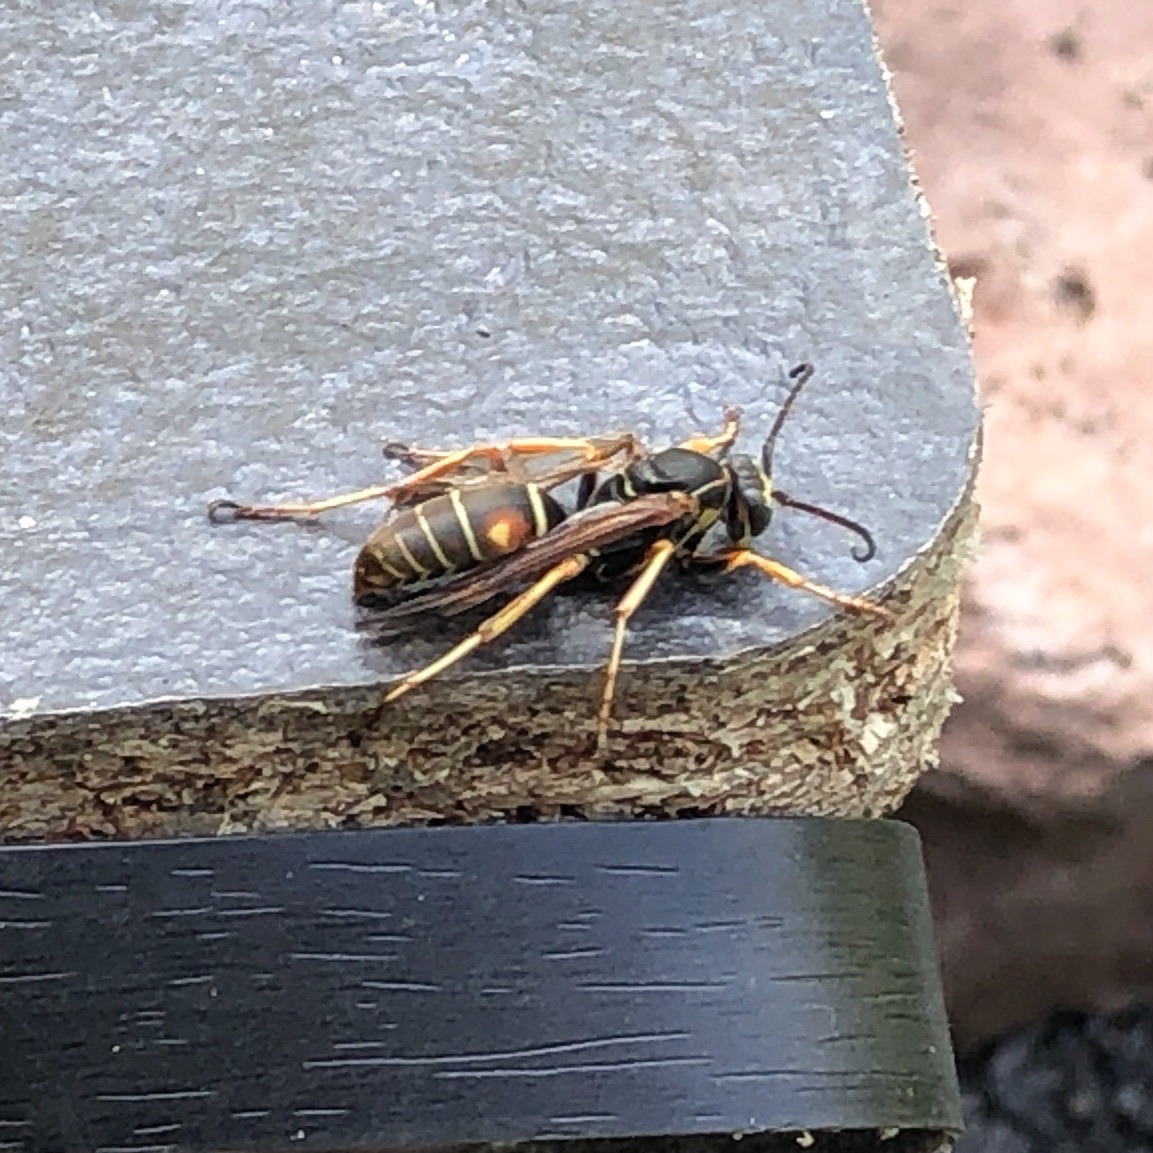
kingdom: Animalia
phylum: Arthropoda
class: Insecta
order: Hymenoptera
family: Eumenidae
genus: Polistes
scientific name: Polistes fuscatus
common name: Dark paper wasp
